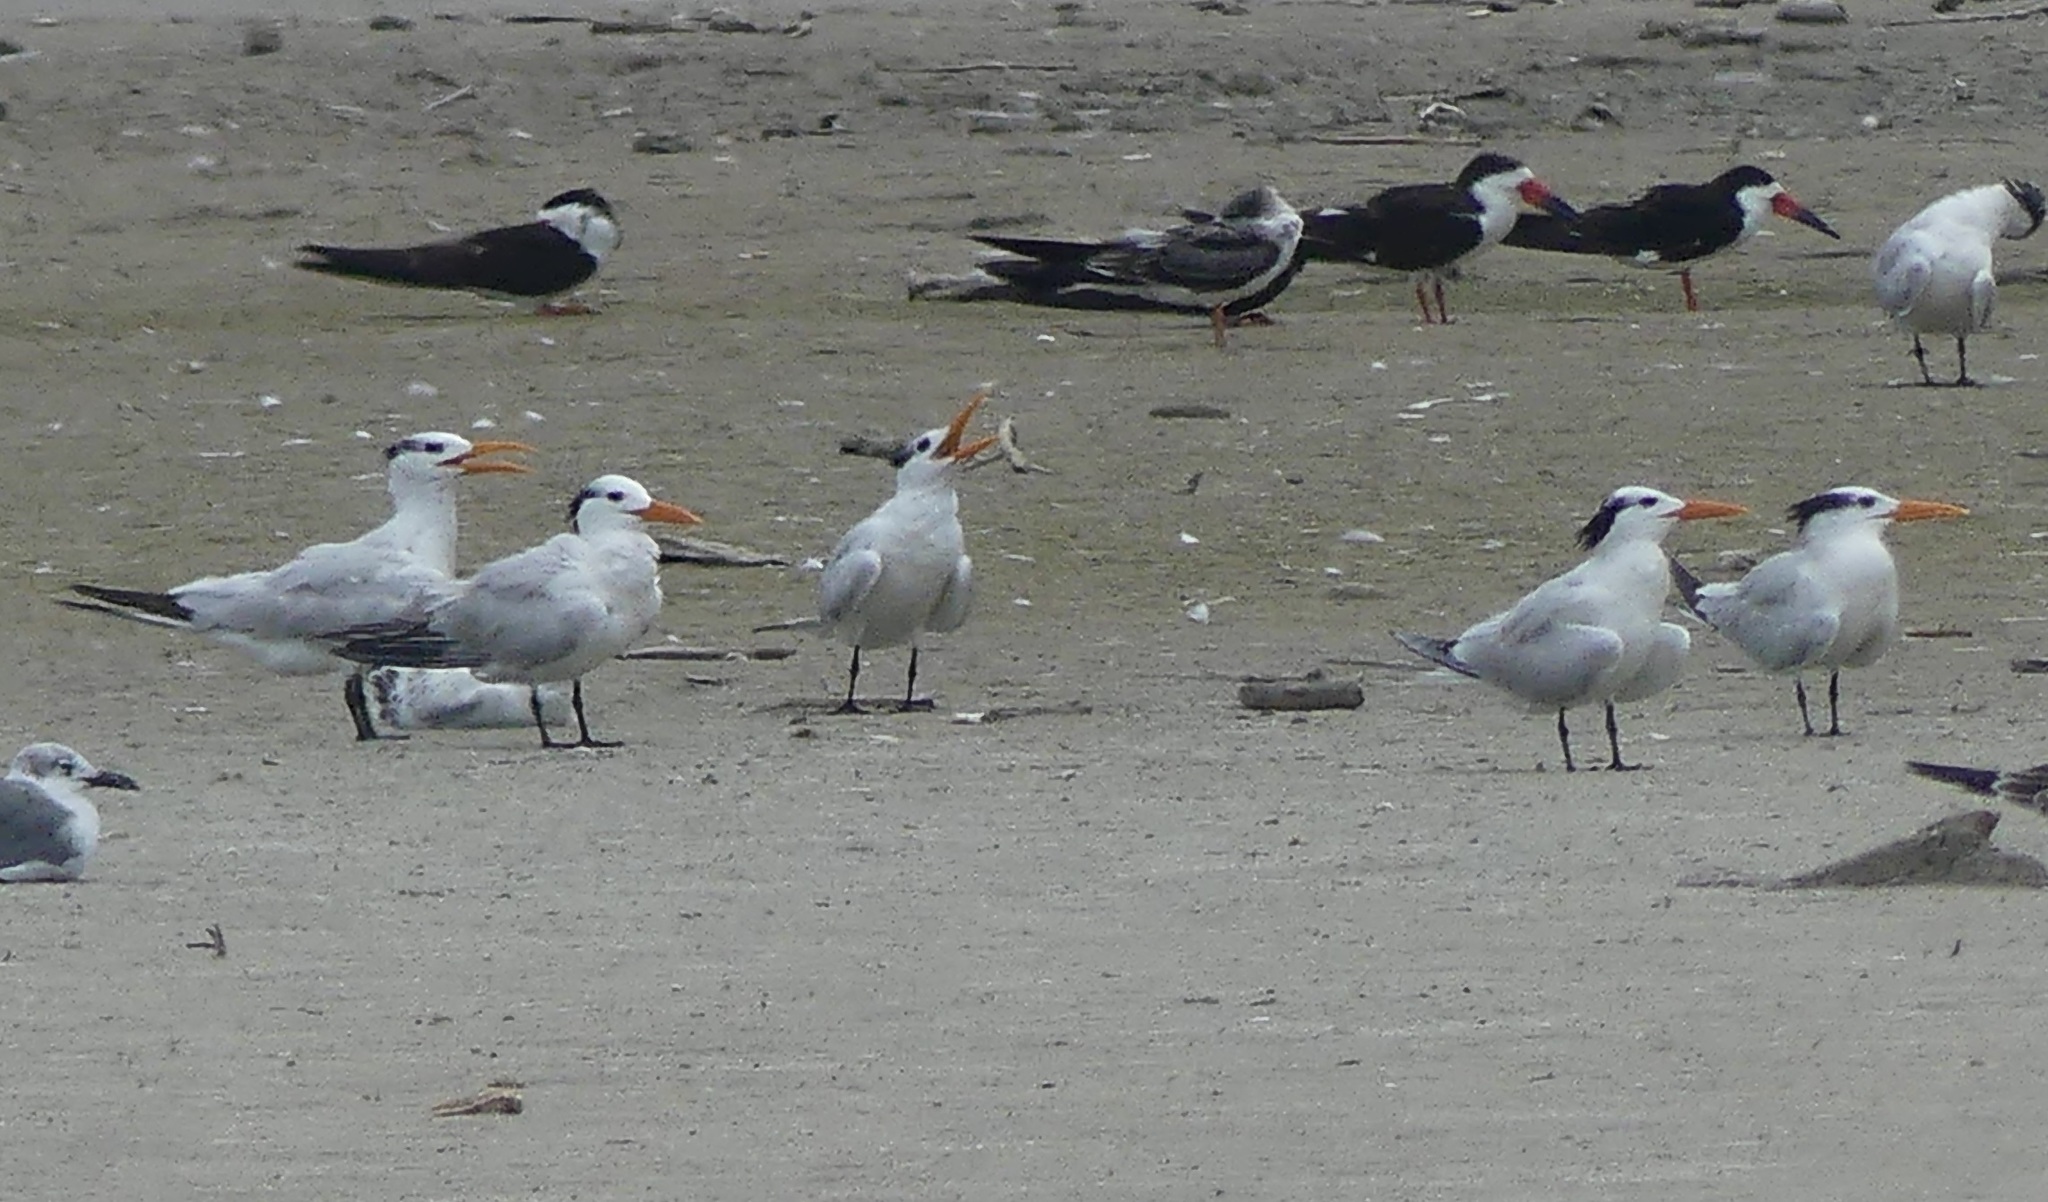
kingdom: Animalia
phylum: Chordata
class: Aves
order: Charadriiformes
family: Laridae
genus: Thalasseus
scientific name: Thalasseus maximus
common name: Royal tern
